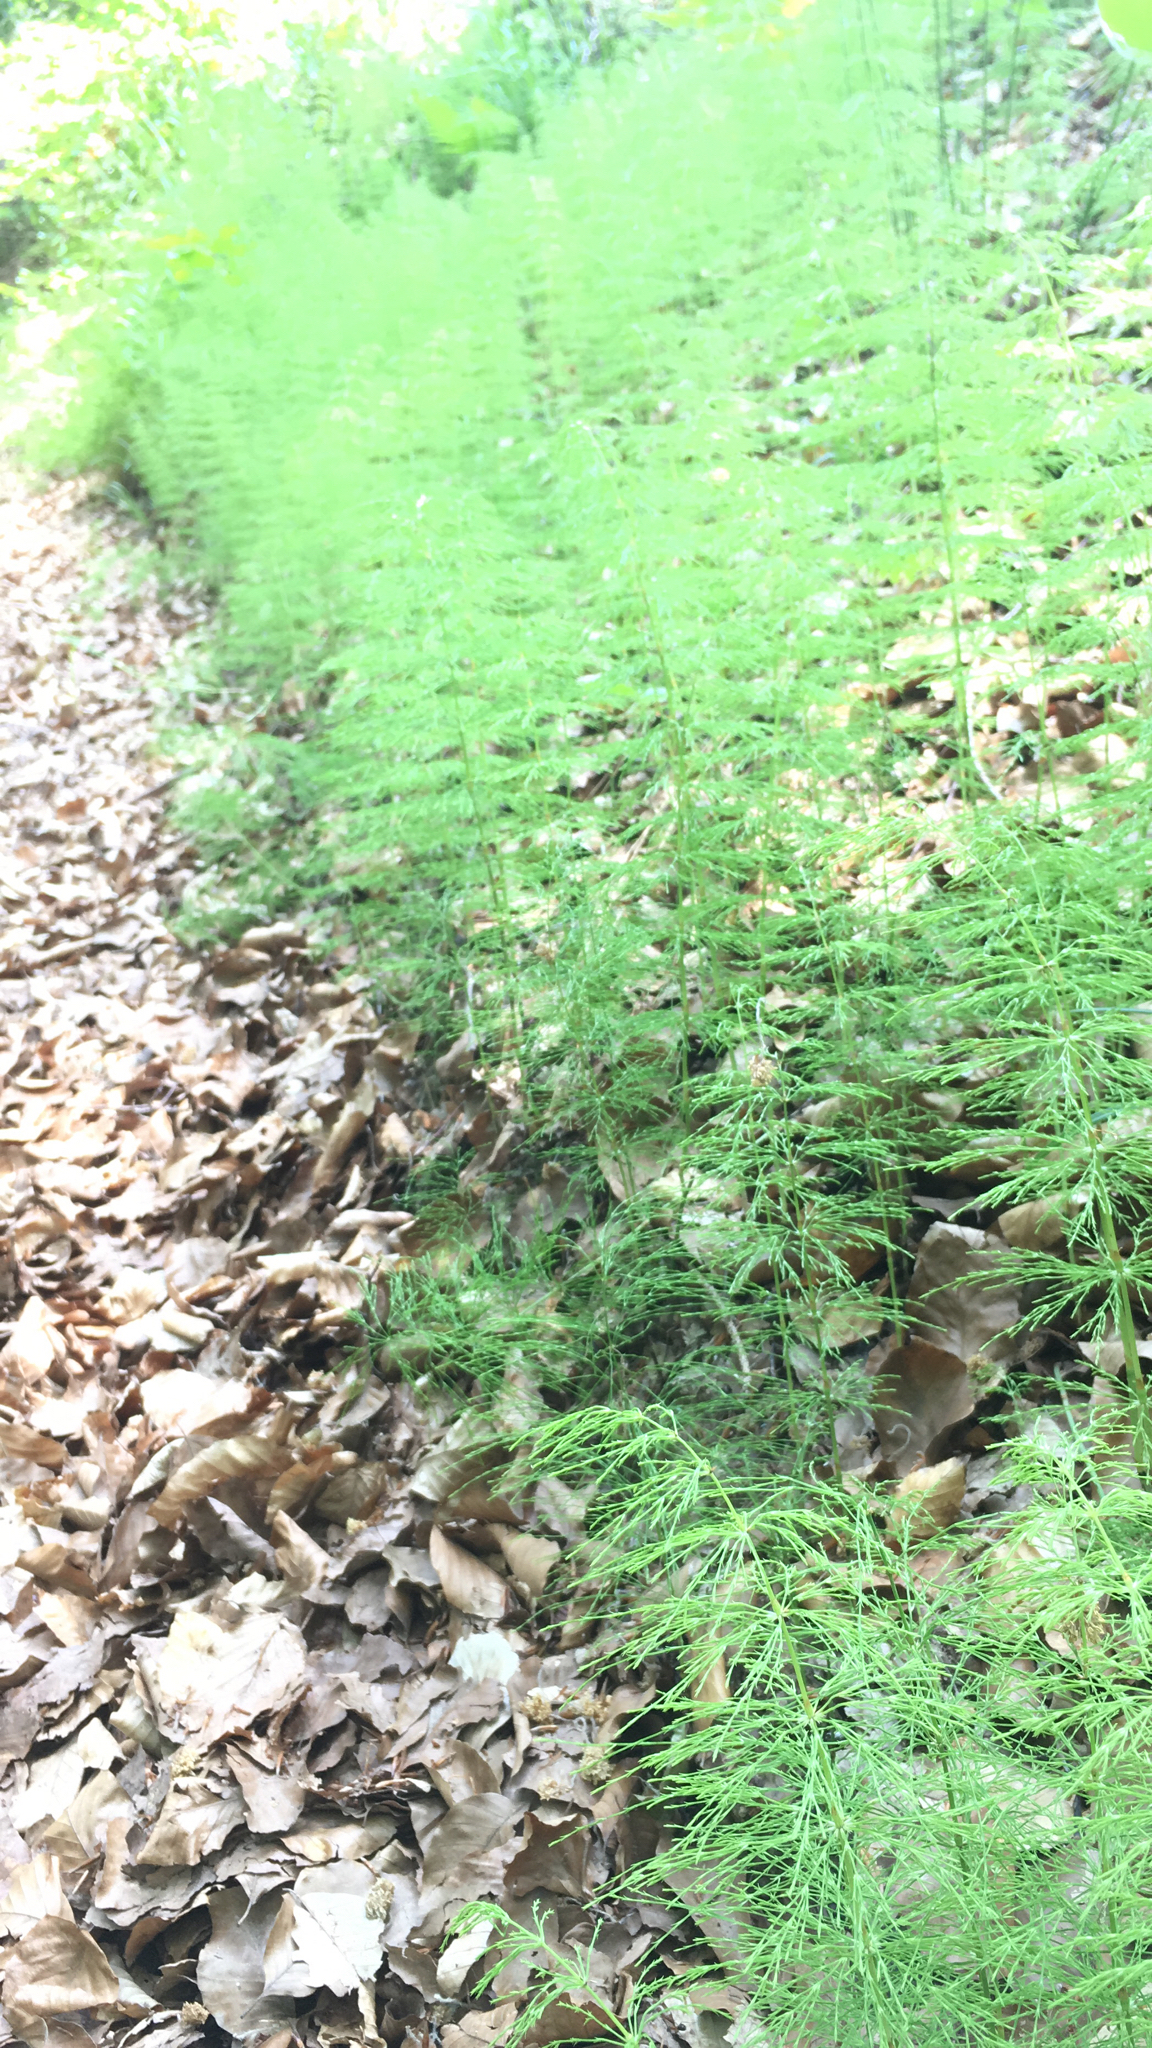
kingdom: Plantae
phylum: Tracheophyta
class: Polypodiopsida
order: Equisetales
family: Equisetaceae
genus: Equisetum
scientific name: Equisetum sylvaticum
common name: Wood horsetail
